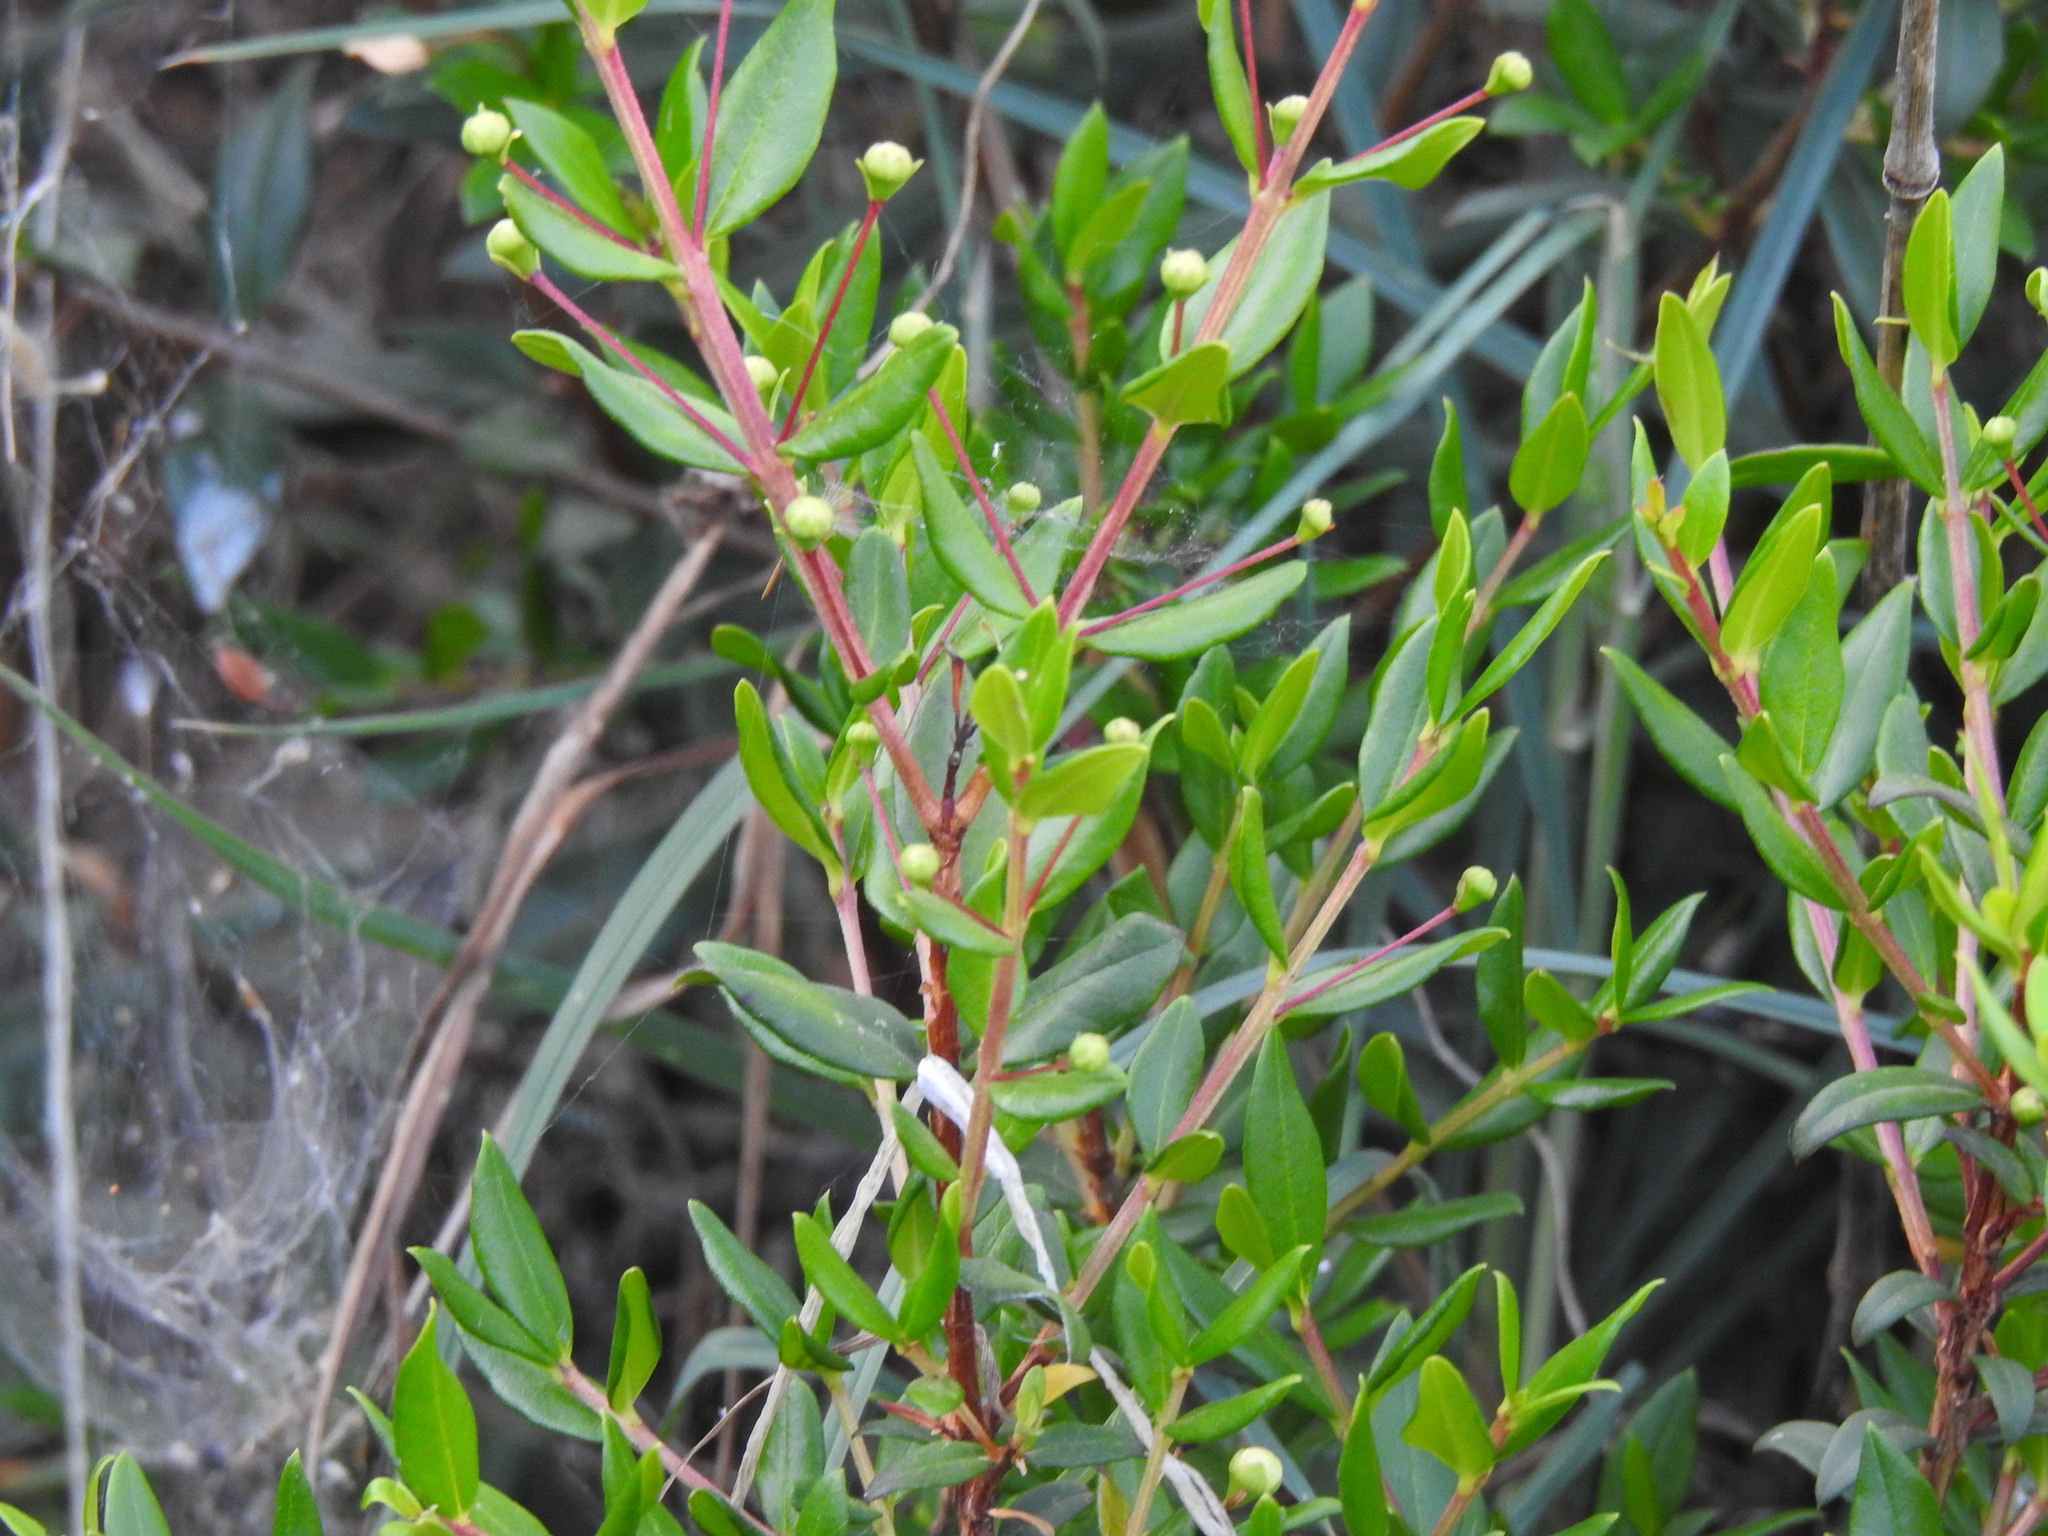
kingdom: Plantae
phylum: Tracheophyta
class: Magnoliopsida
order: Myrtales
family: Myrtaceae
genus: Myrtus
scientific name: Myrtus communis
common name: Myrtle
